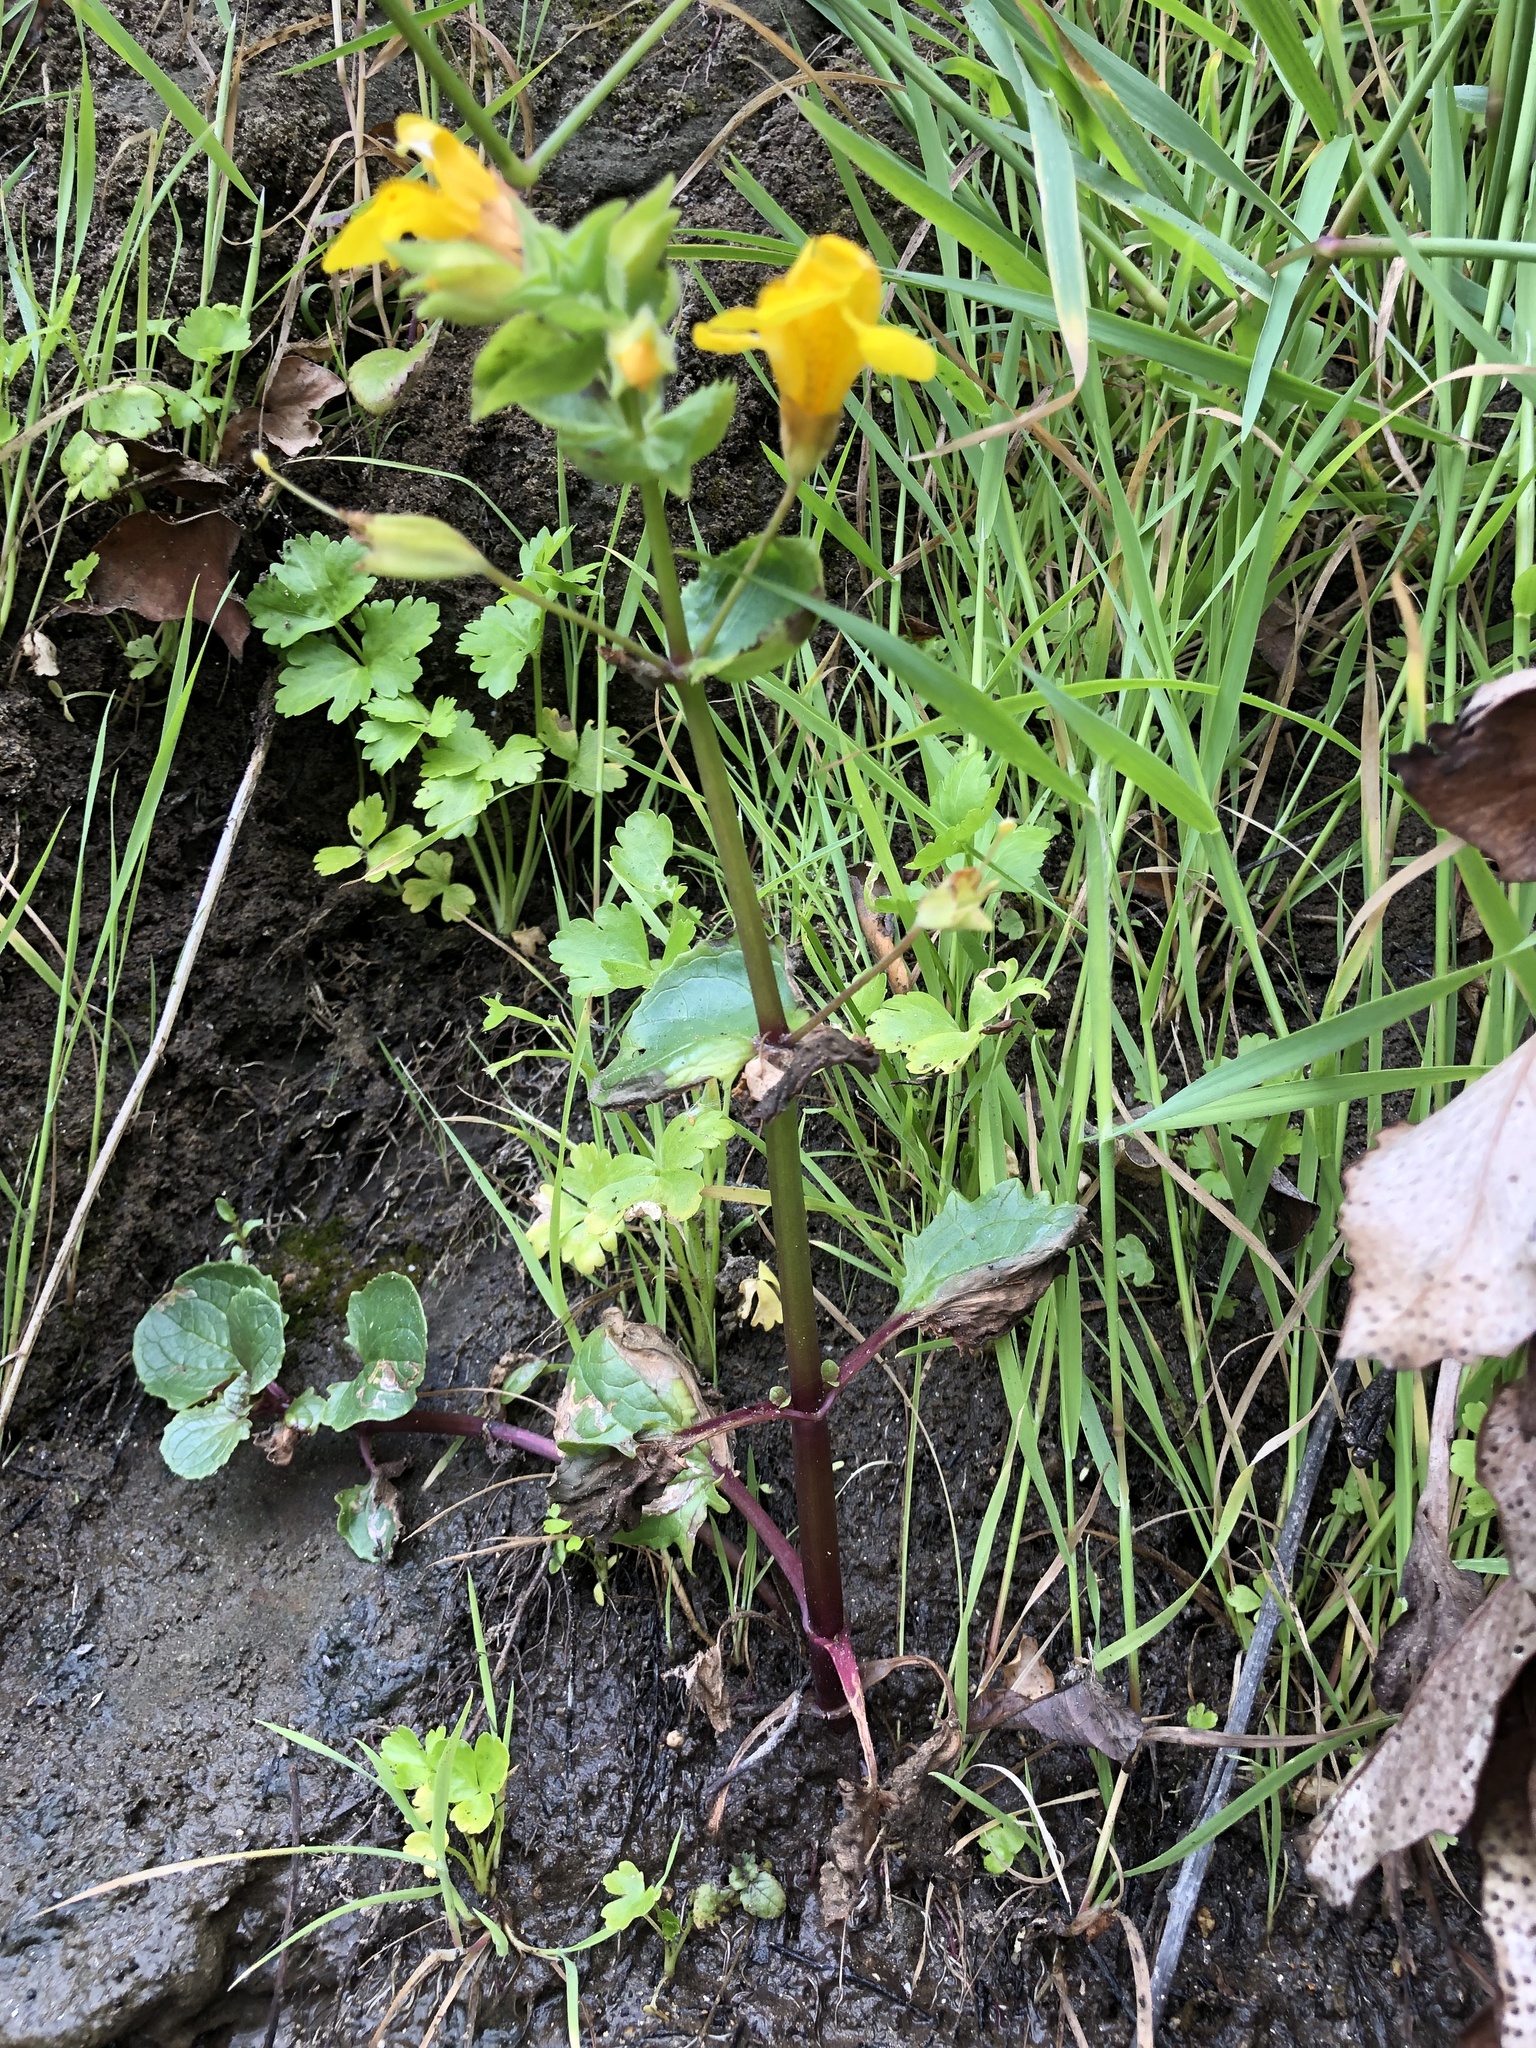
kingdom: Plantae
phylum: Tracheophyta
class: Magnoliopsida
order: Lamiales
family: Phrymaceae
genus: Erythranthe
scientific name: Erythranthe grandis
